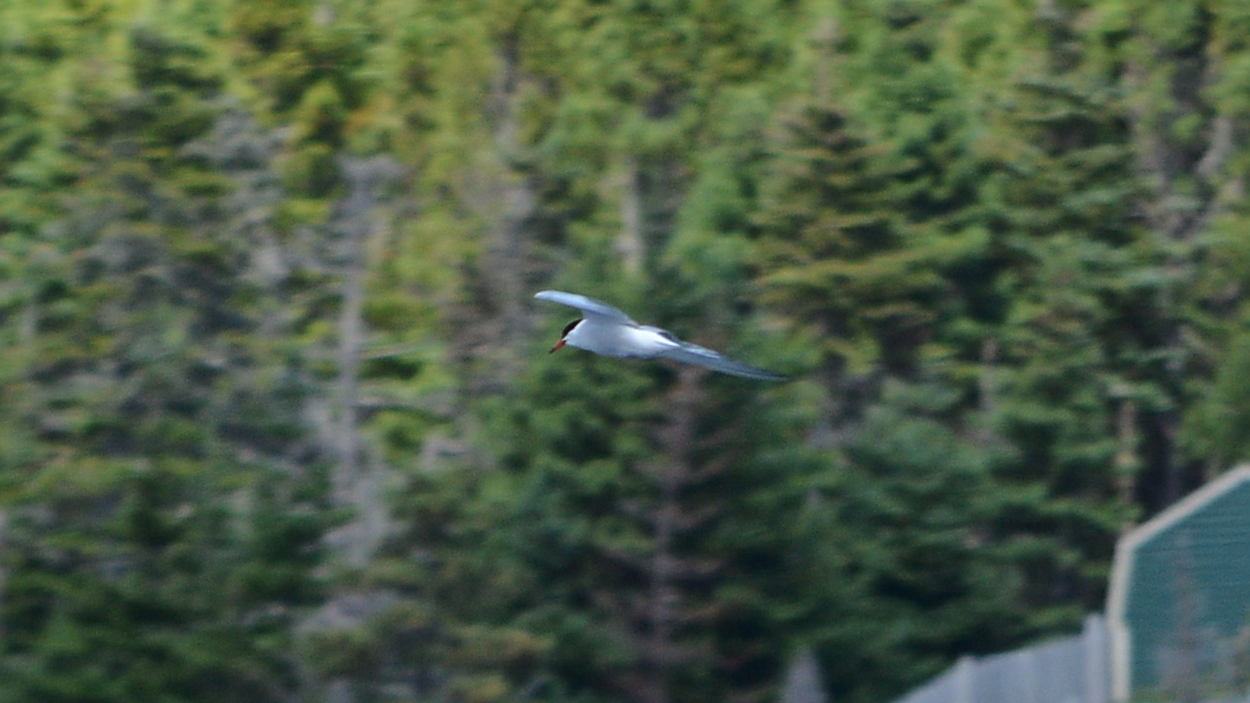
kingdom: Animalia
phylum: Chordata
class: Aves
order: Charadriiformes
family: Laridae
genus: Sterna
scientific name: Sterna hirundo
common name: Common tern
